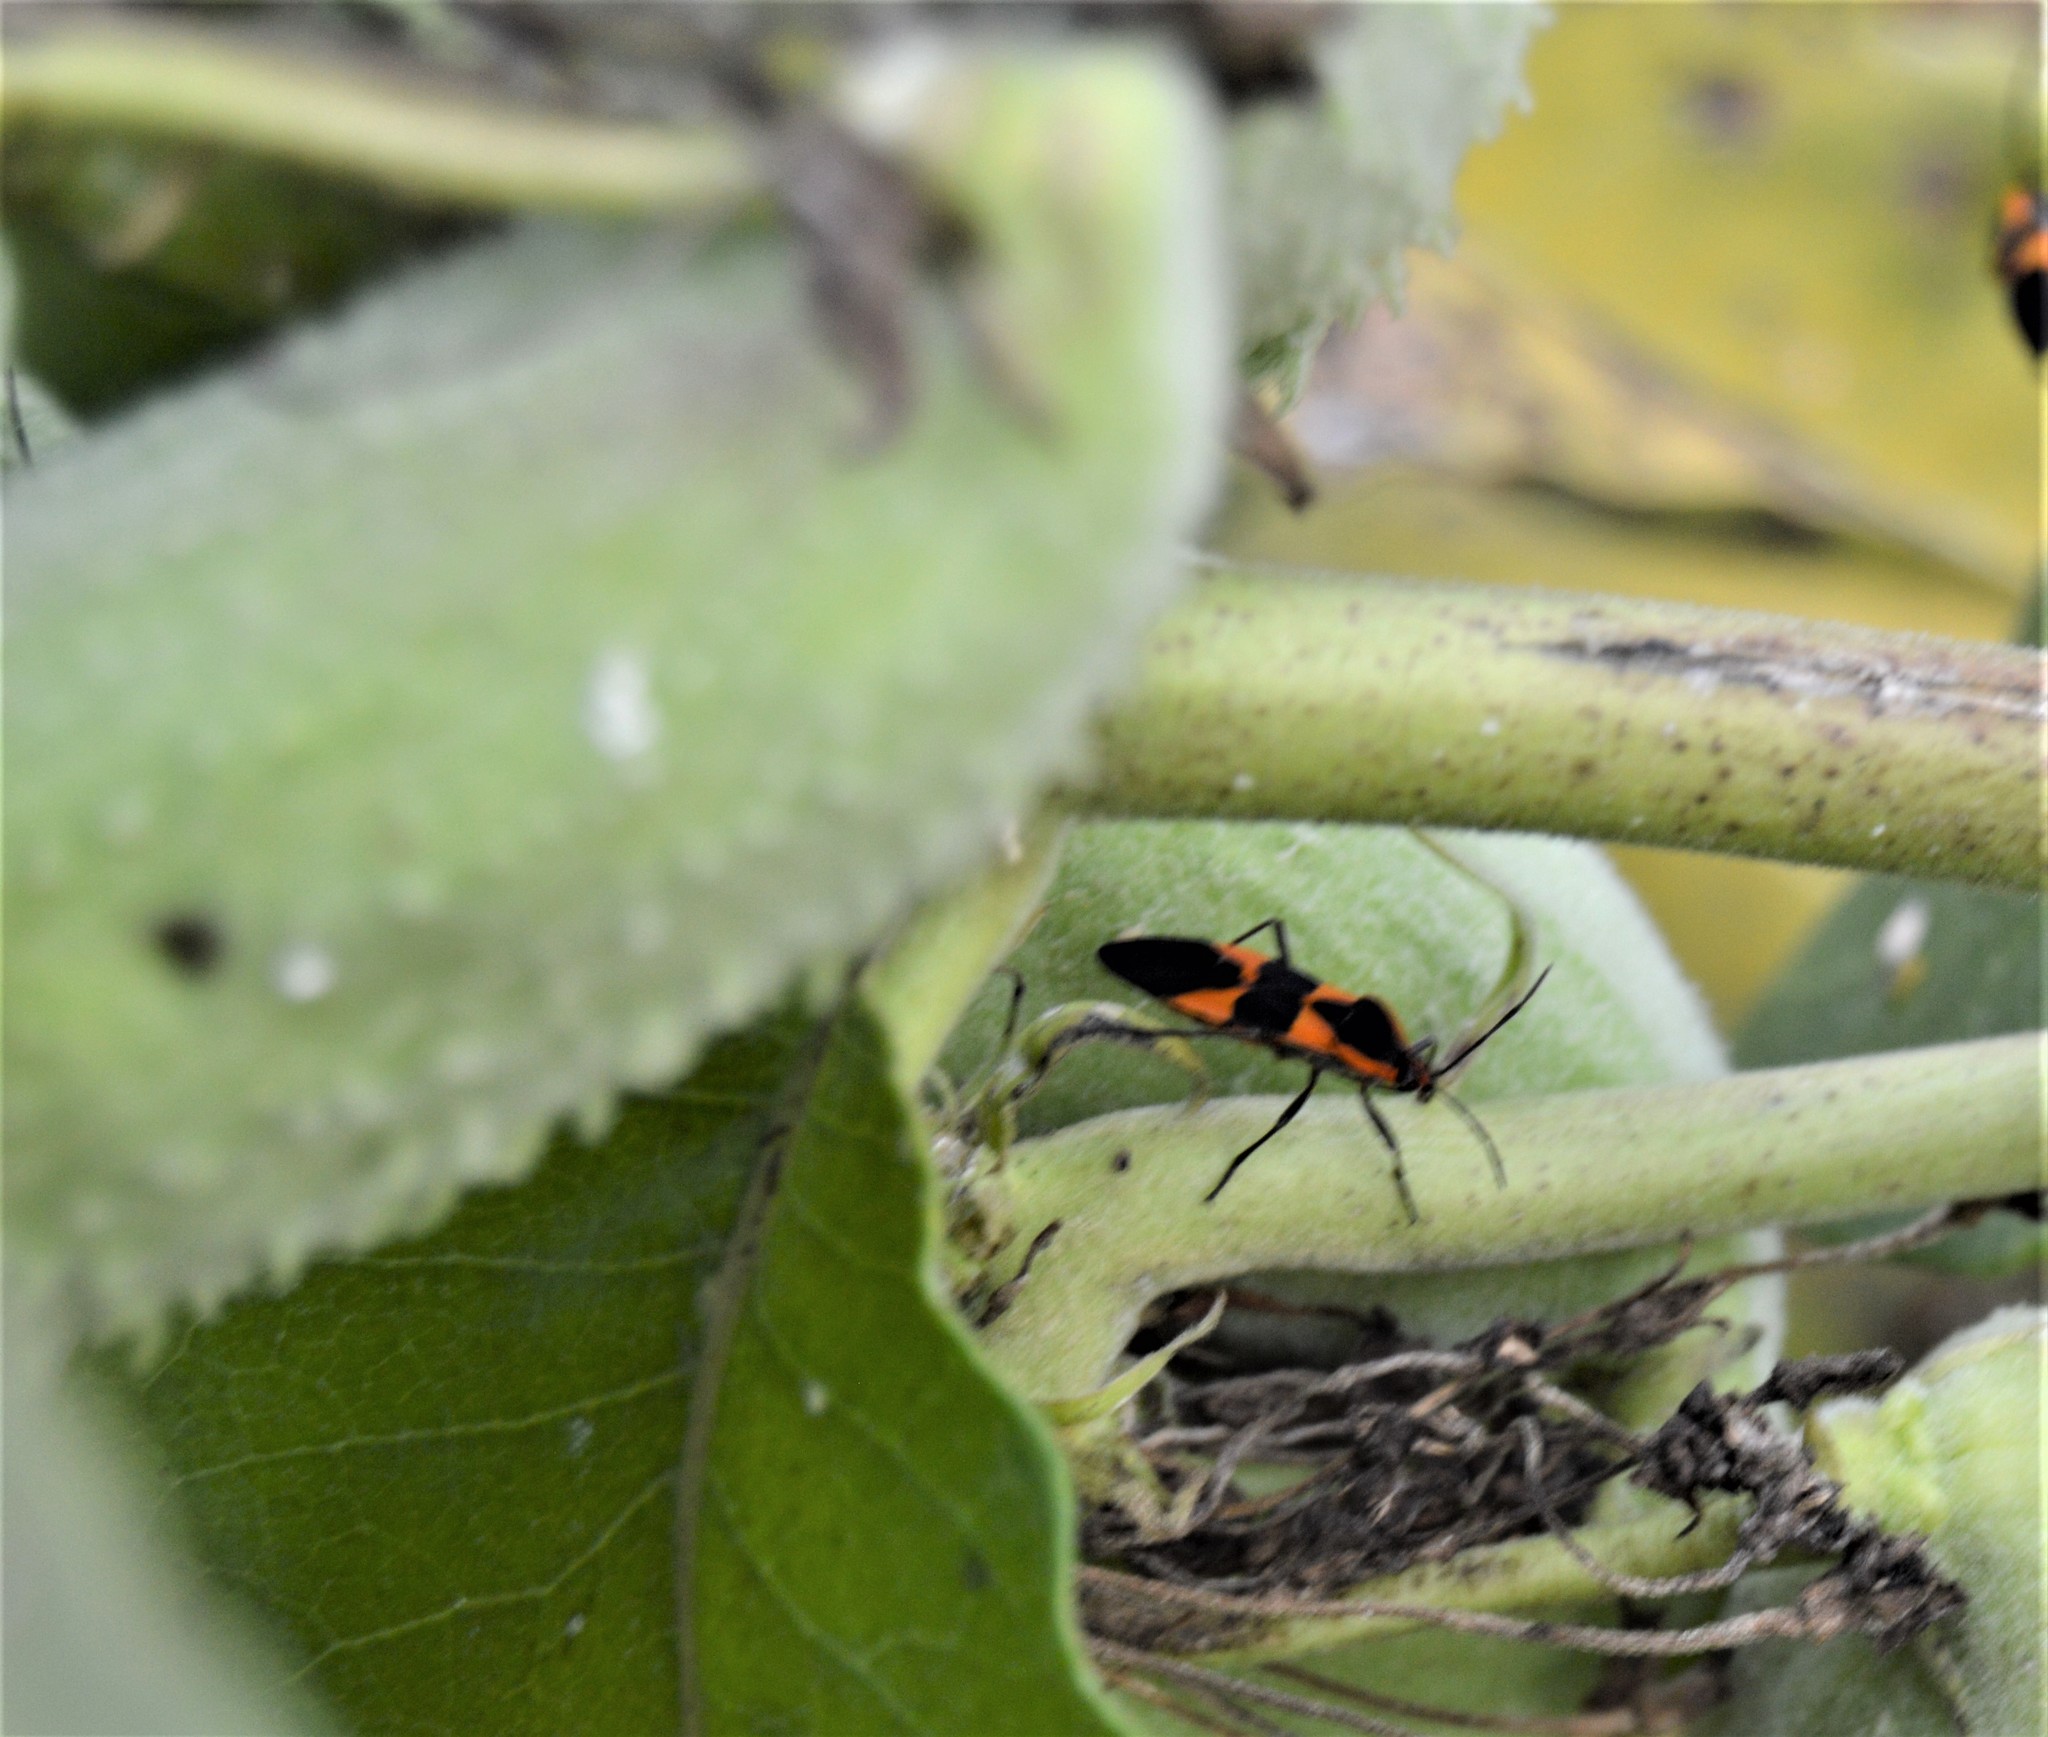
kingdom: Animalia
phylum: Arthropoda
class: Insecta
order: Hemiptera
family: Lygaeidae
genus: Oncopeltus
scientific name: Oncopeltus fasciatus
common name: Large milkweed bug
